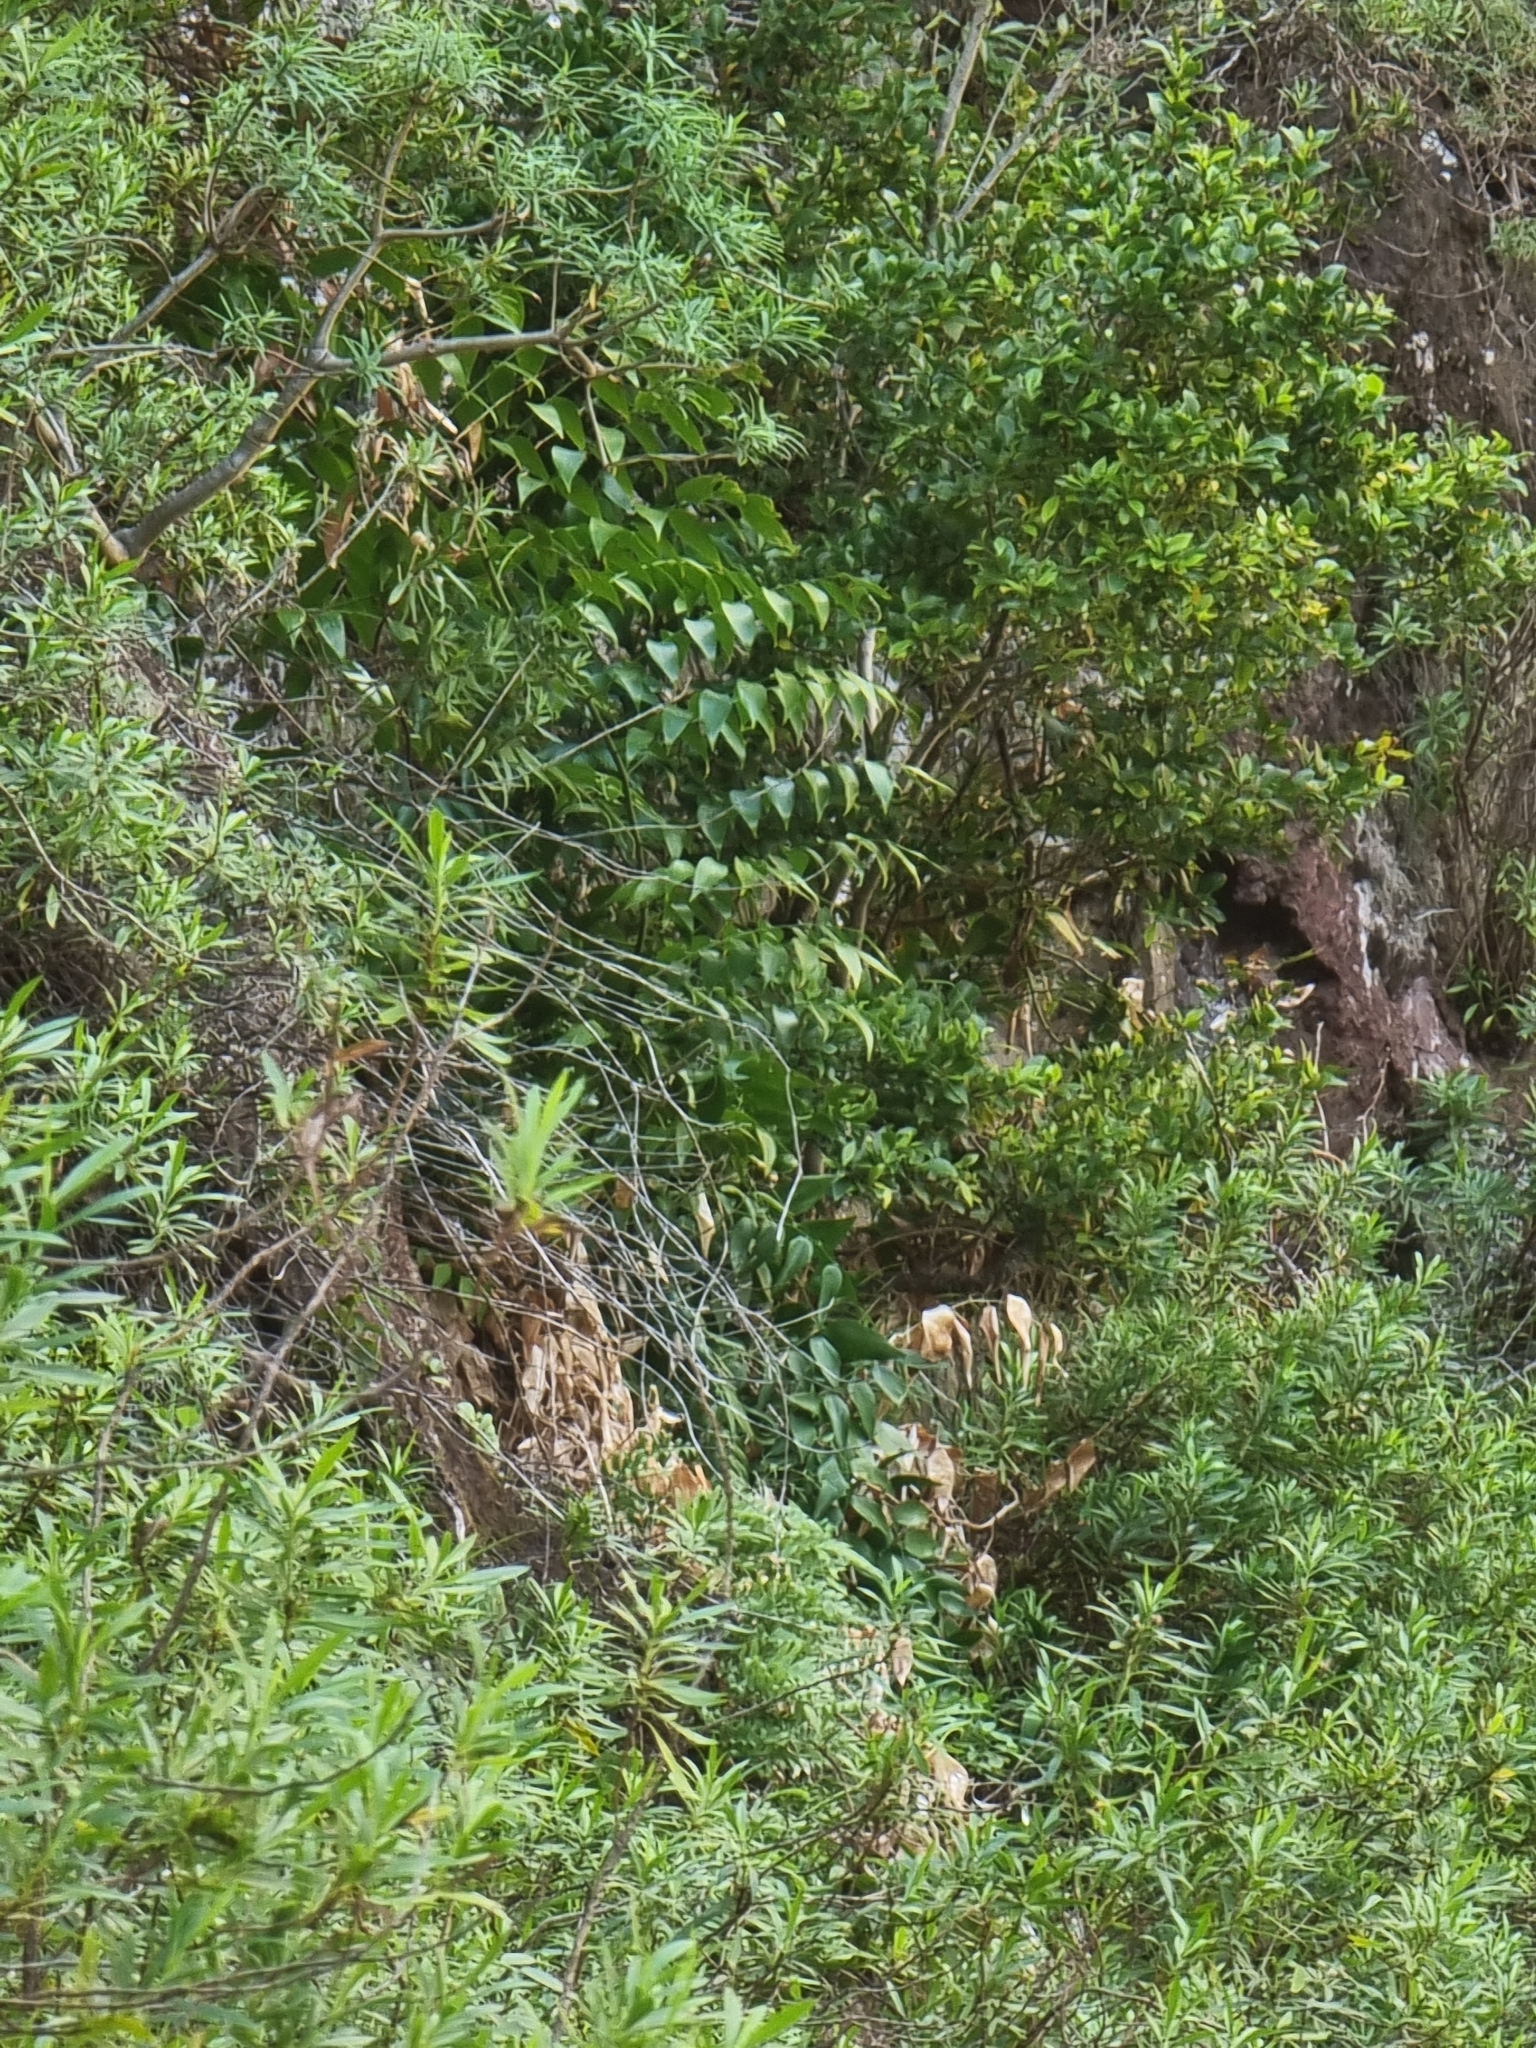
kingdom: Plantae
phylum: Tracheophyta
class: Liliopsida
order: Asparagales
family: Asparagaceae
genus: Semele
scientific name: Semele androgyna
